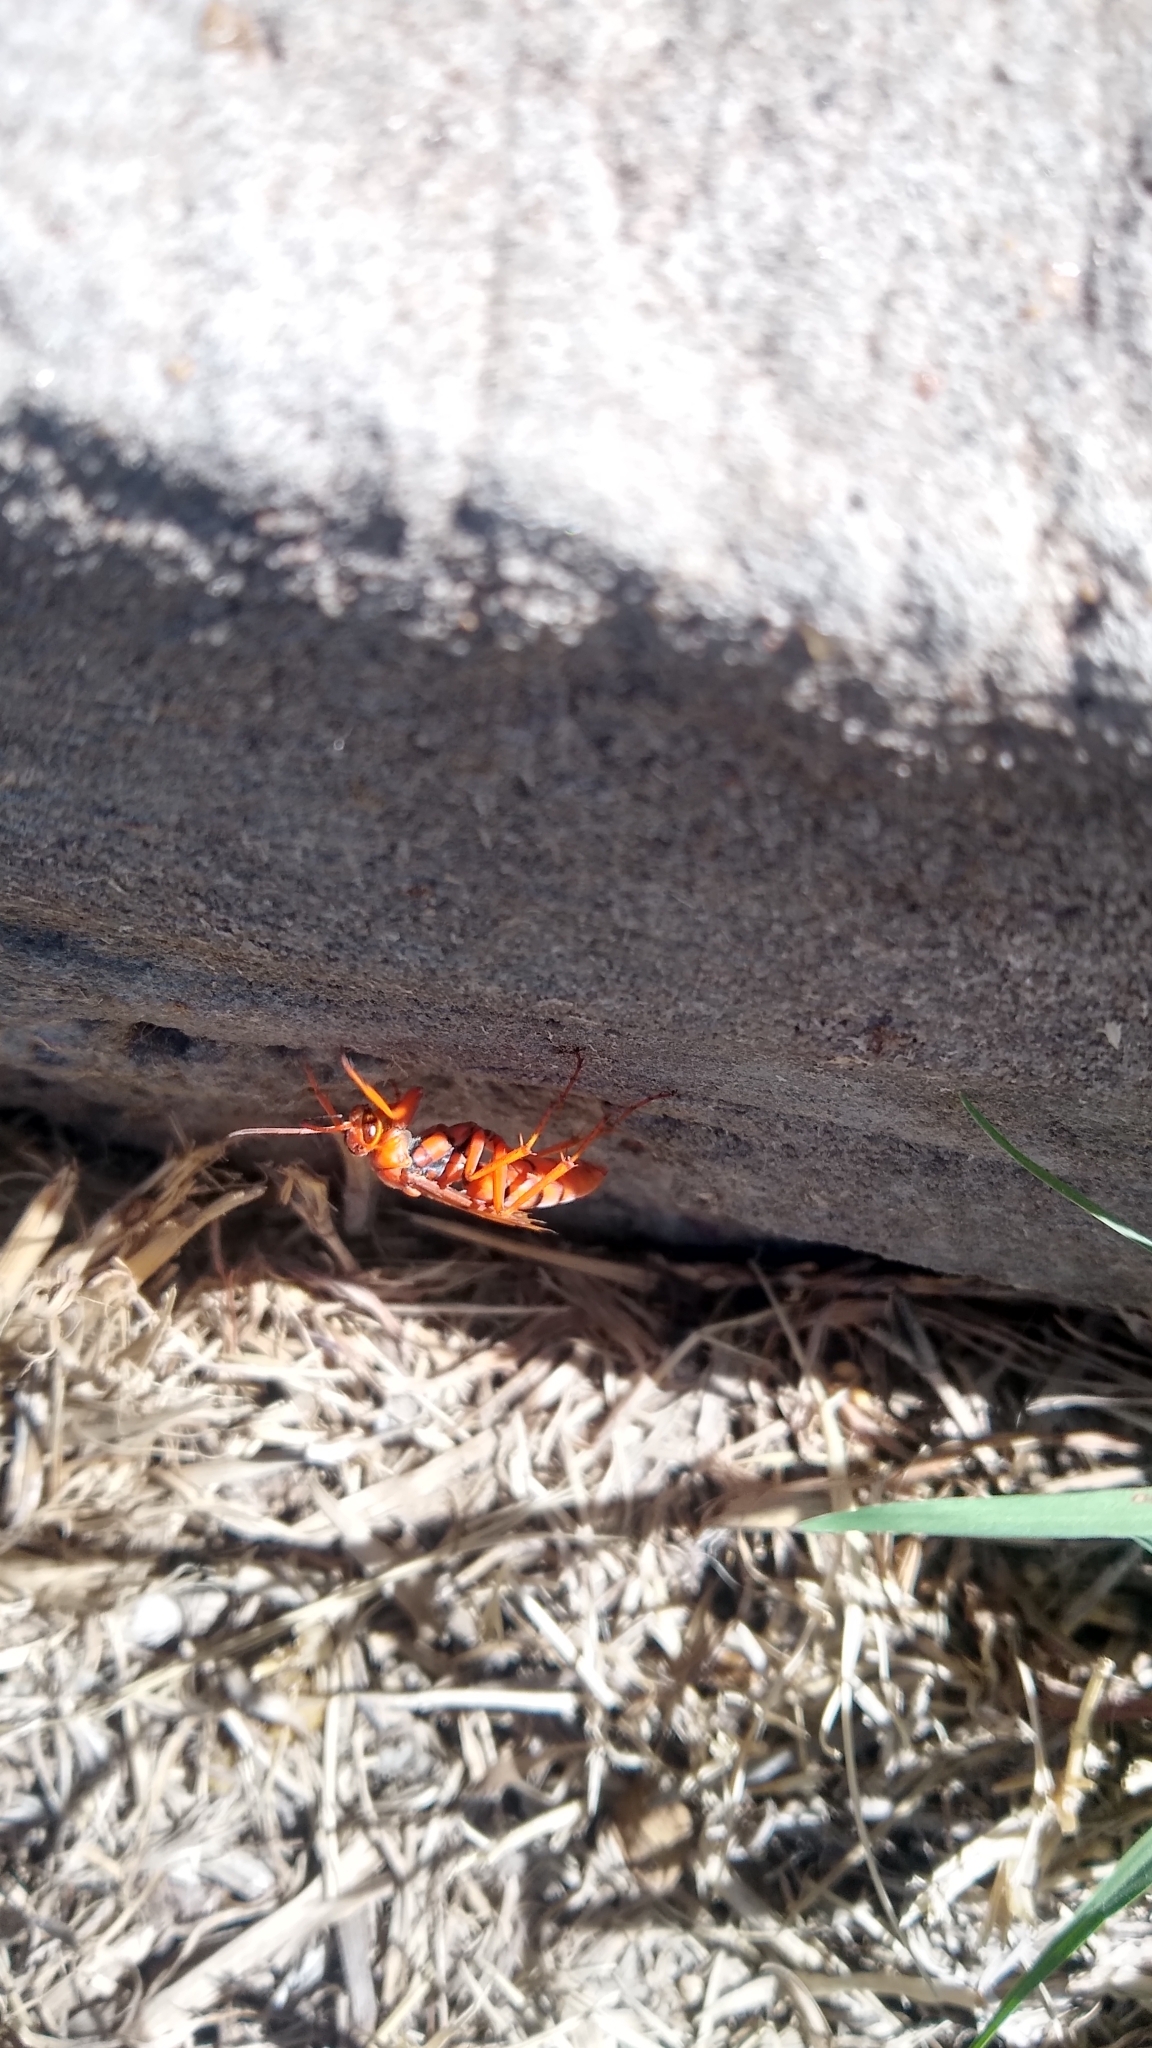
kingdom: Animalia
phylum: Arthropoda
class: Insecta
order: Hymenoptera
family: Pompilidae
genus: Tachypompilus
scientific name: Tachypompilus mendozae
